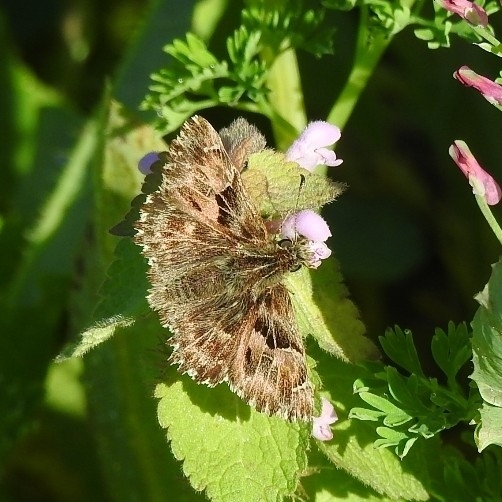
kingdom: Animalia
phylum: Arthropoda
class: Insecta
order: Lepidoptera
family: Hesperiidae
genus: Carcharodus
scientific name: Carcharodus alceae
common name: Mallow skipper
